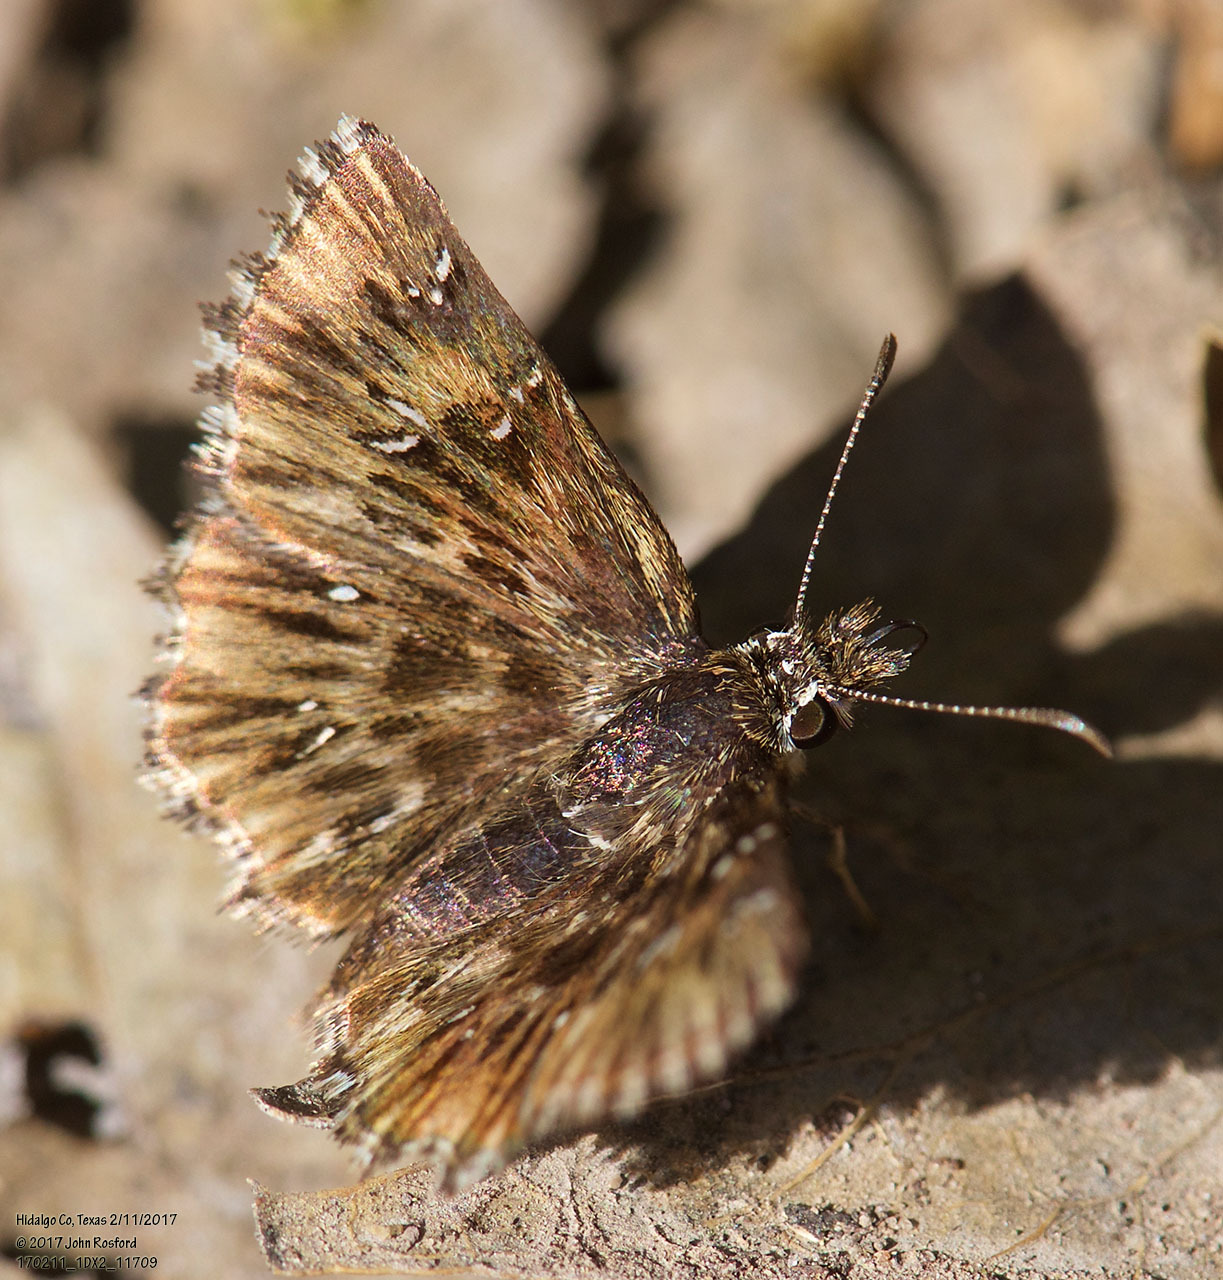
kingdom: Animalia
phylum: Arthropoda
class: Insecta
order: Lepidoptera
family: Hesperiidae
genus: Celotes
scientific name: Celotes nessus
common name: Common streaky-skipper
